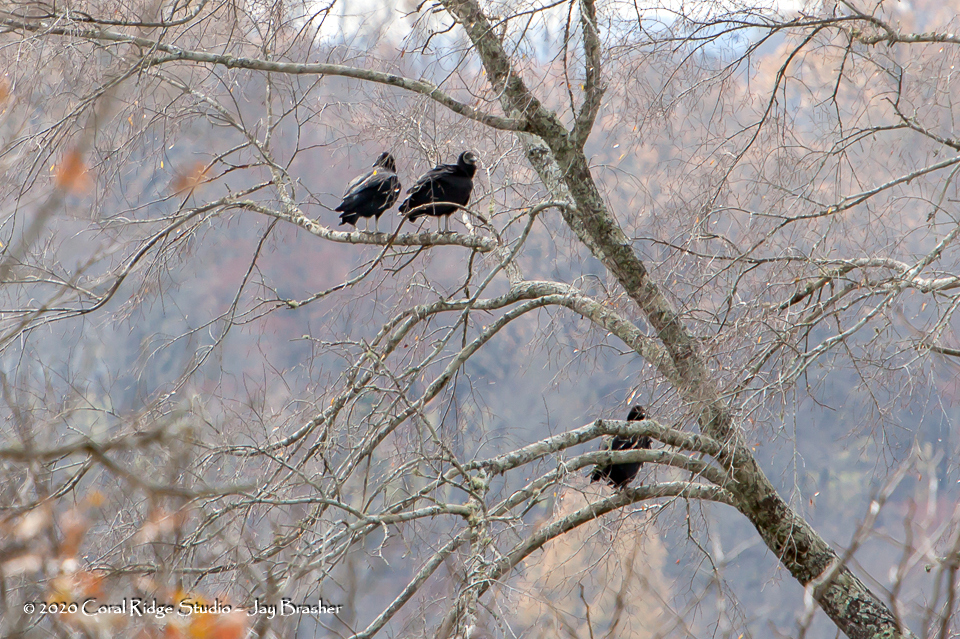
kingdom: Animalia
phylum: Chordata
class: Aves
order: Accipitriformes
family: Cathartidae
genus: Coragyps
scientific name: Coragyps atratus
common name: Black vulture
